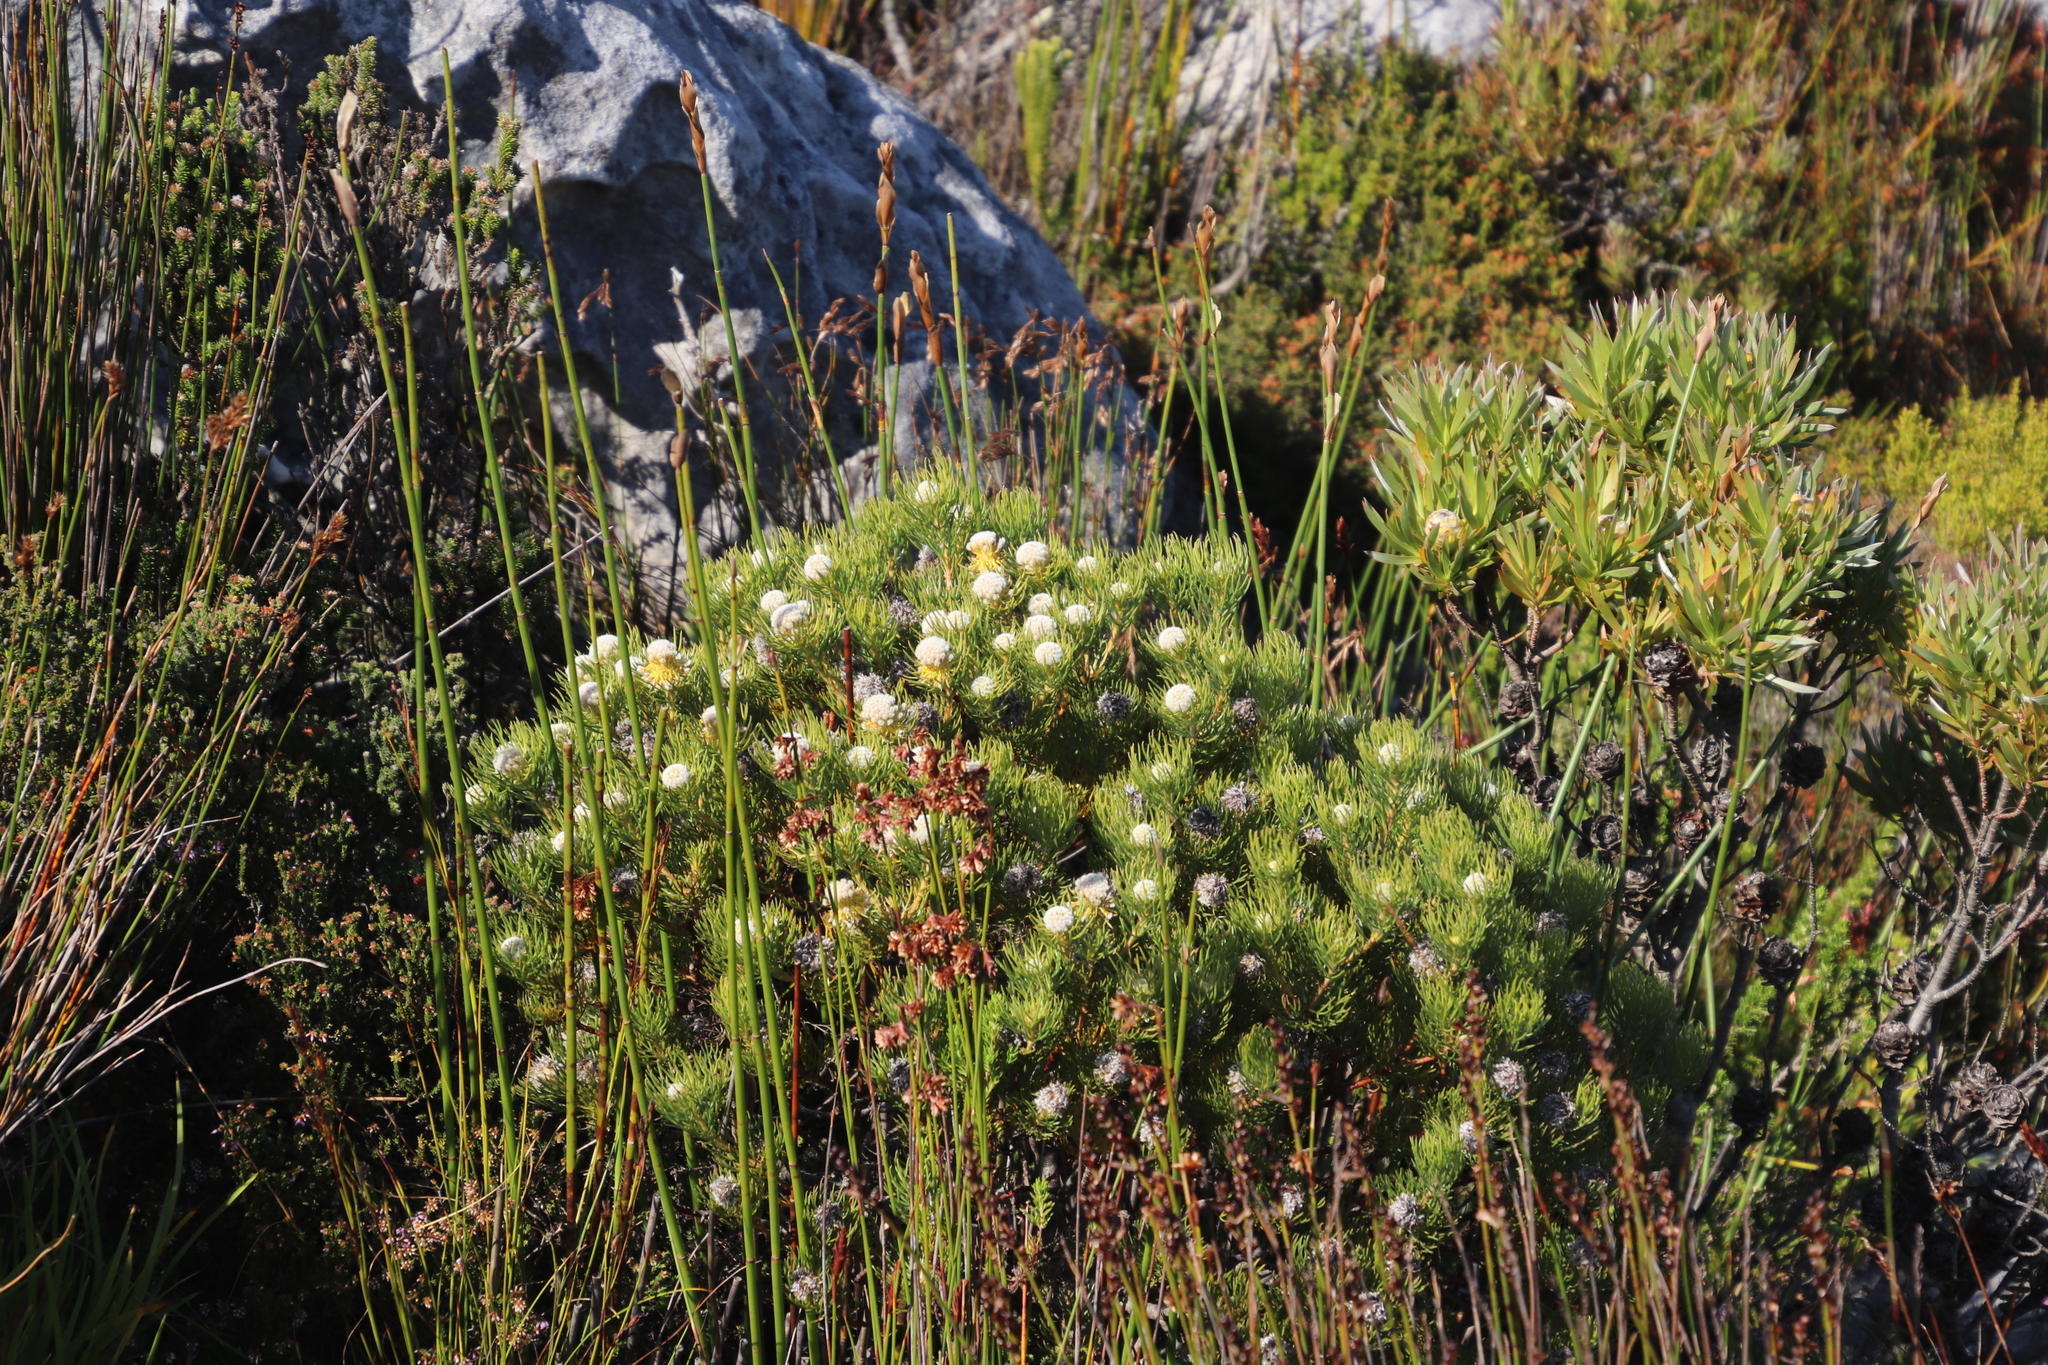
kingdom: Plantae
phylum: Tracheophyta
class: Magnoliopsida
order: Proteales
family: Proteaceae
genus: Serruria
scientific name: Serruria villosa
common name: Golden spiderhead
